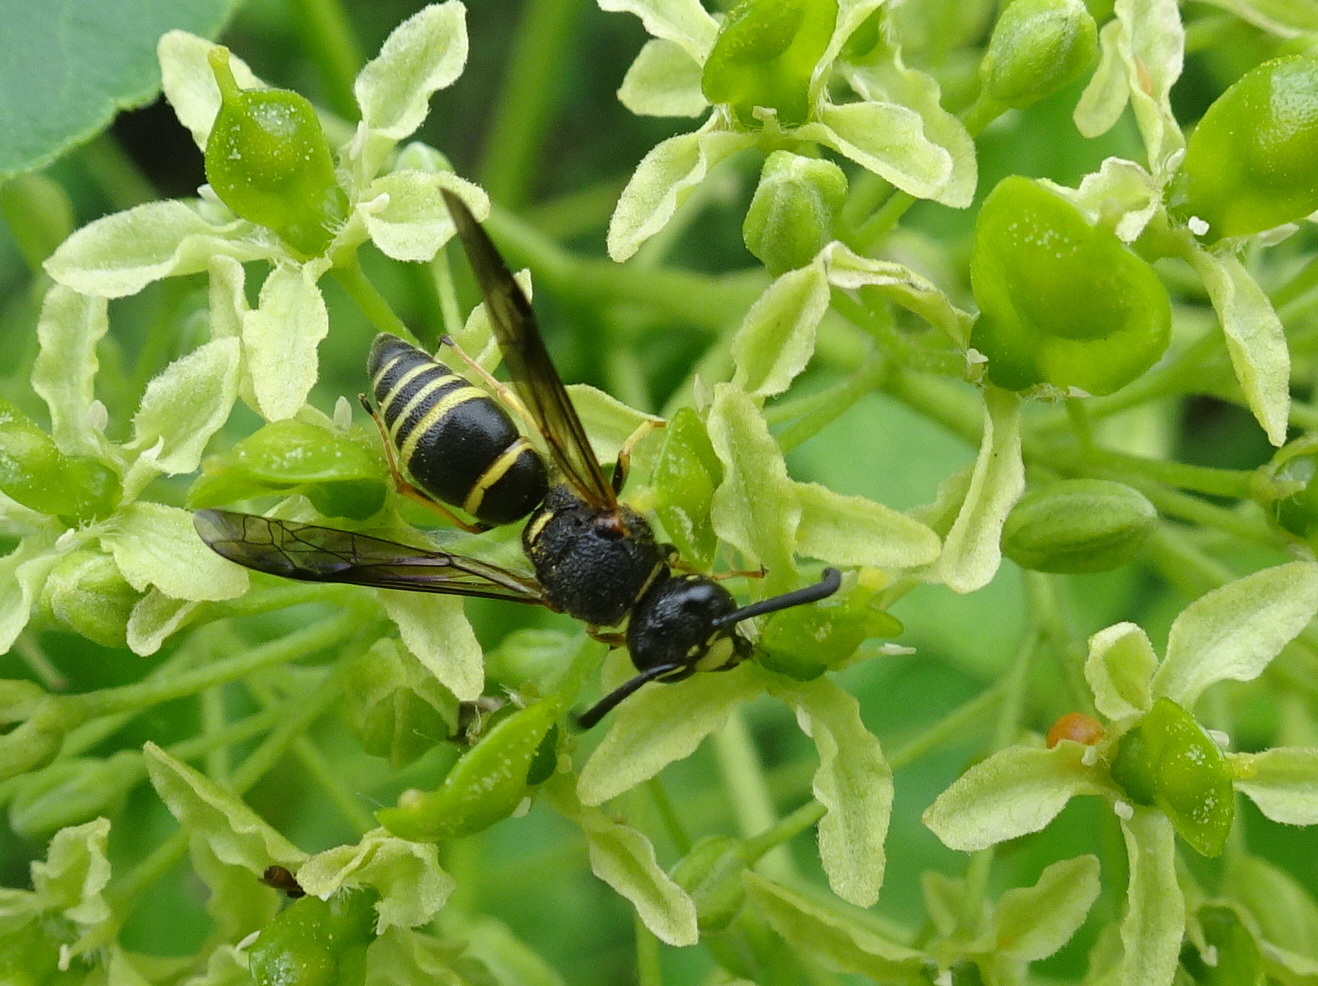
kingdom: Animalia
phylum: Arthropoda
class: Insecta
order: Hymenoptera
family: Eumenidae
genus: Euodynerus
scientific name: Euodynerus foraminatus
